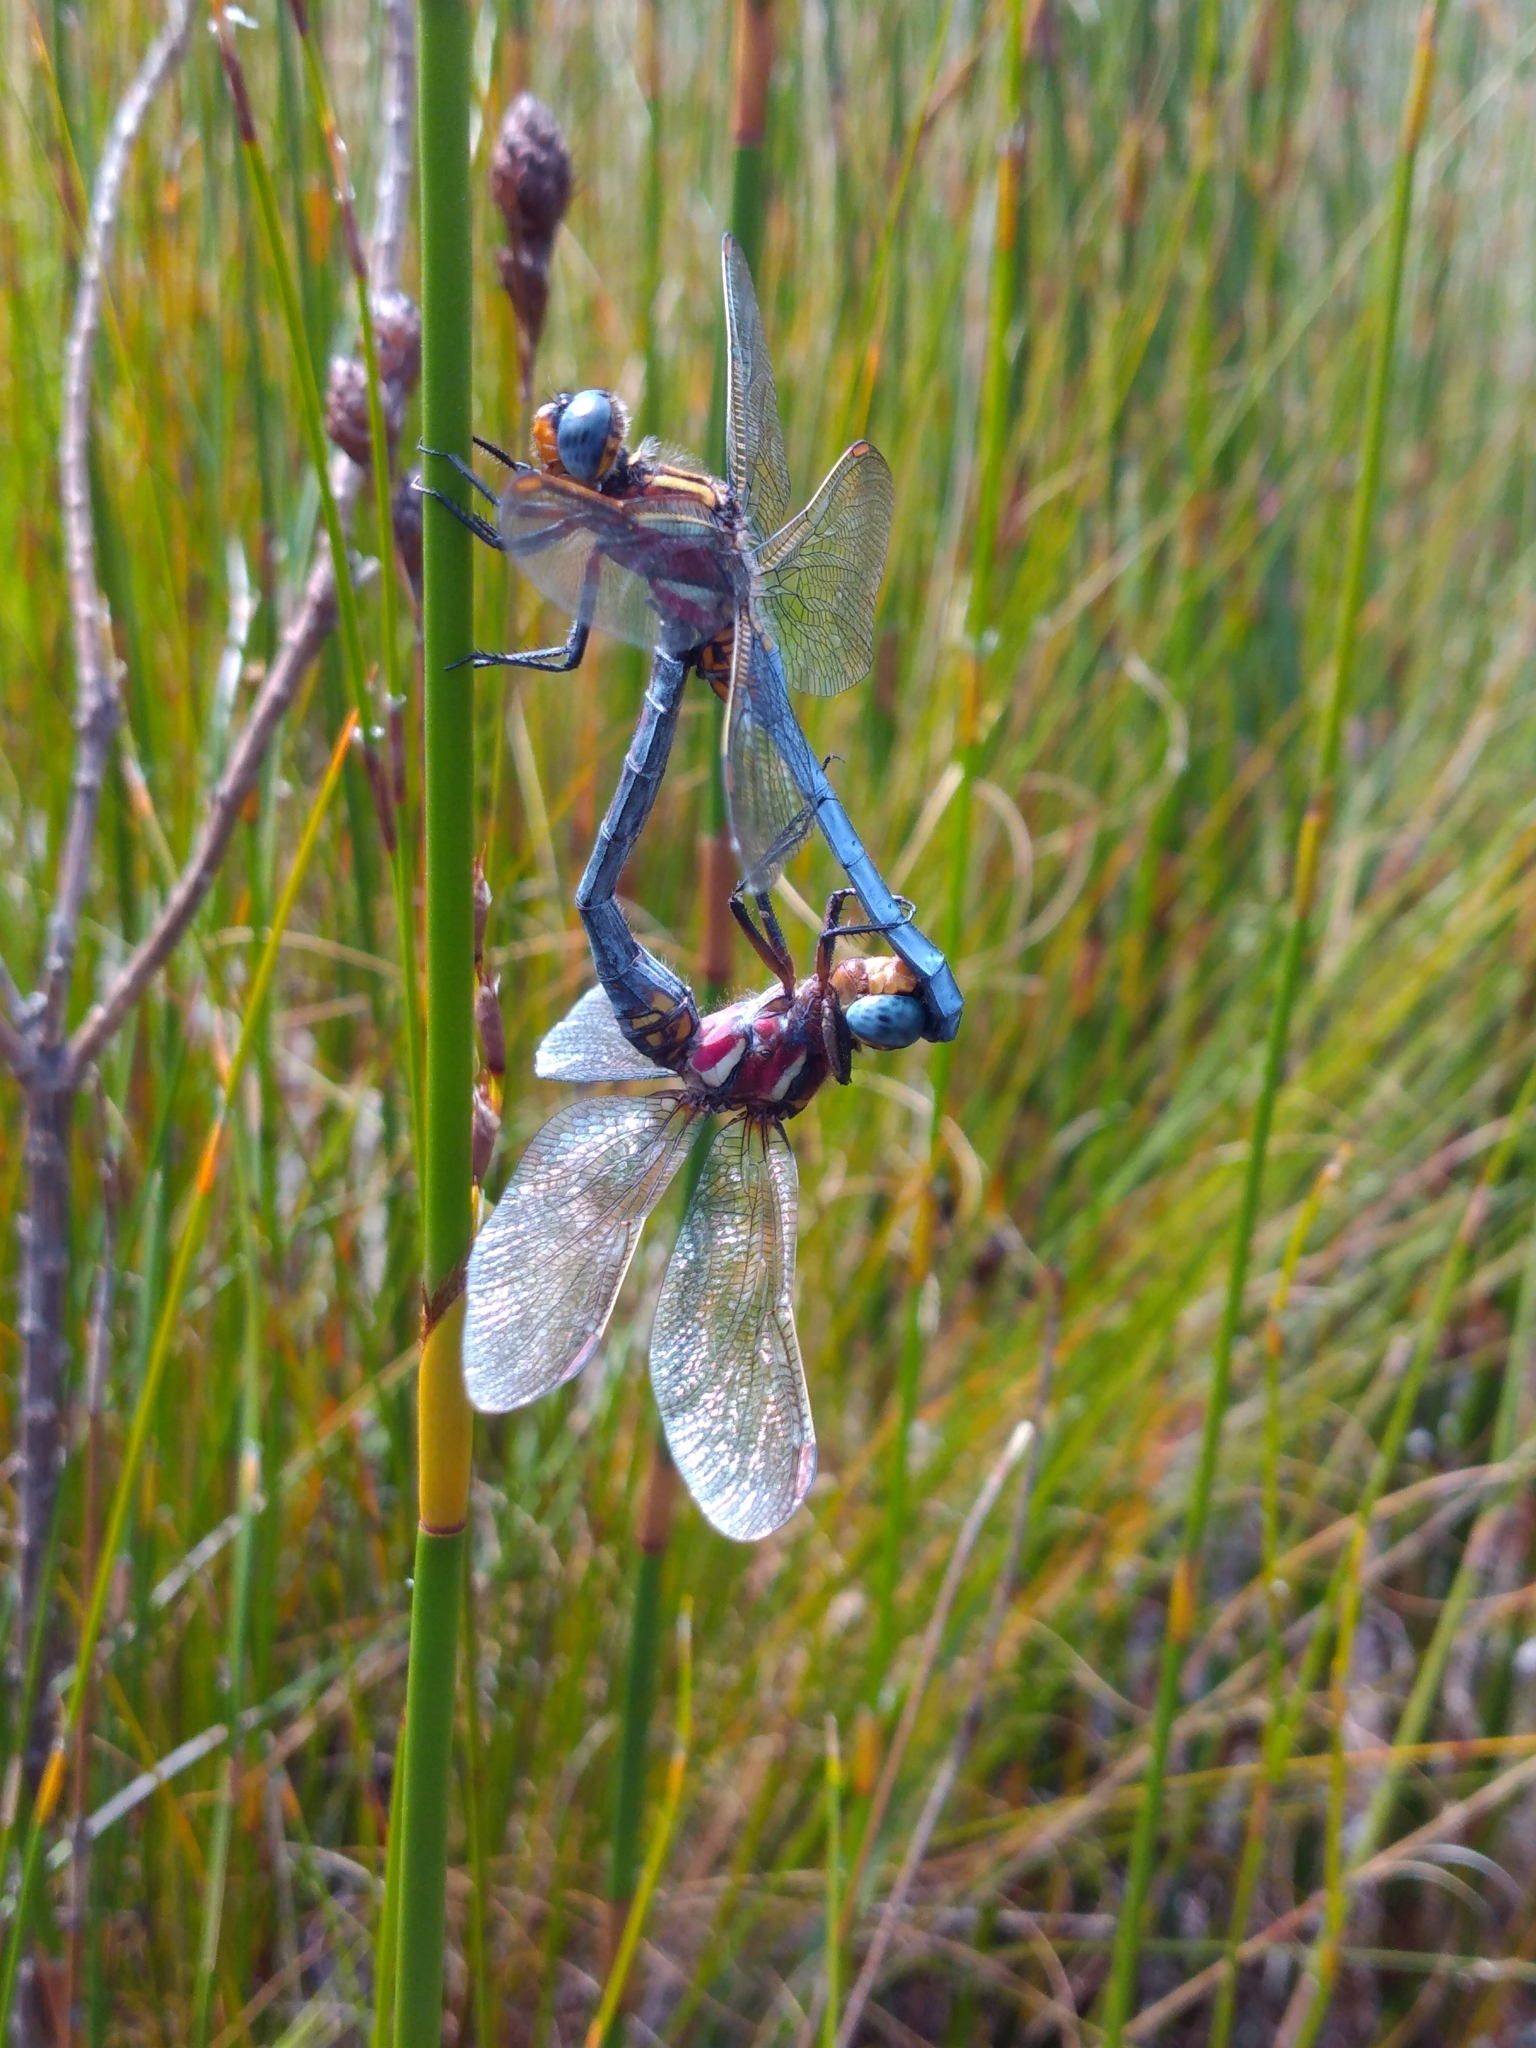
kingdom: Animalia
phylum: Arthropoda
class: Insecta
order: Odonata
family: Libellulidae
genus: Orthetrum
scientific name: Orthetrum rubens
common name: Elusive skimmer
